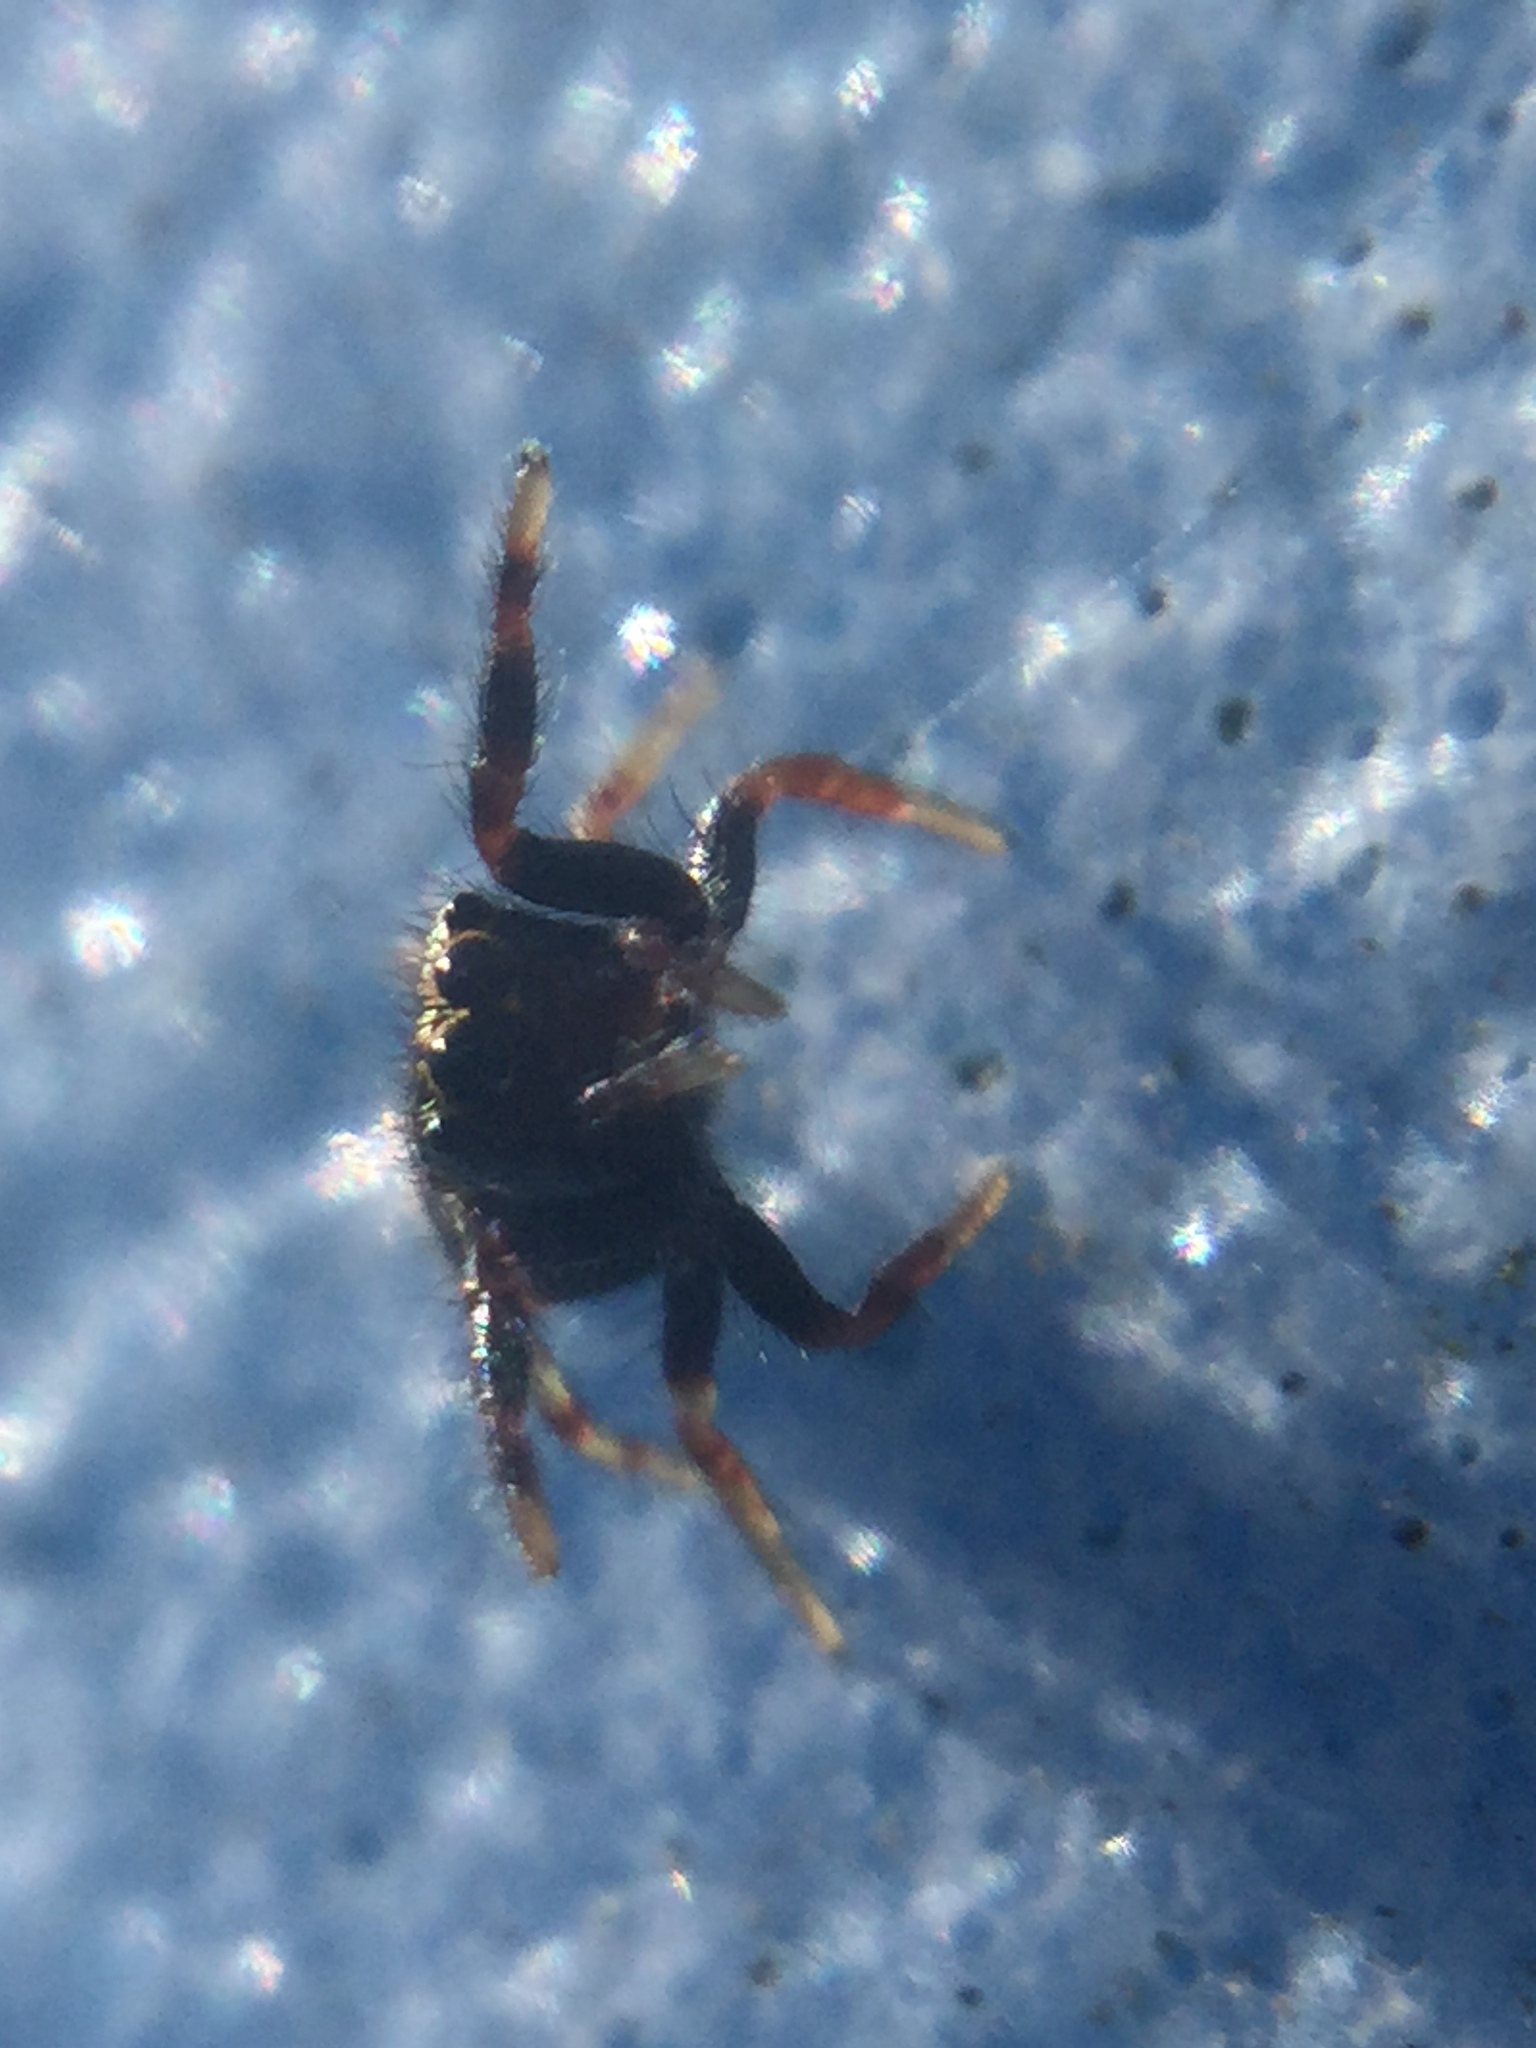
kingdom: Animalia
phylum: Arthropoda
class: Arachnida
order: Araneae
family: Salticidae
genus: Paraphidippus
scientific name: Paraphidippus aurantius
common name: Jumping spiders
